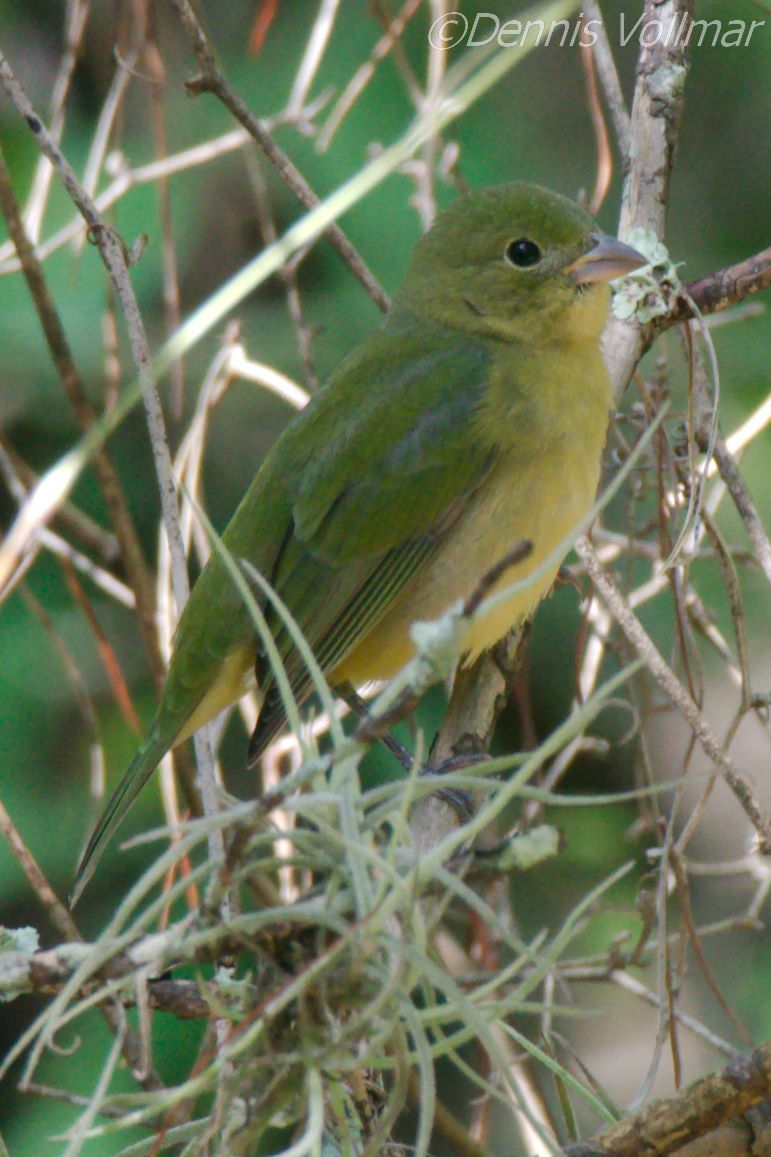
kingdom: Animalia
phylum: Chordata
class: Aves
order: Passeriformes
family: Cardinalidae
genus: Passerina
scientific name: Passerina ciris
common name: Painted bunting
